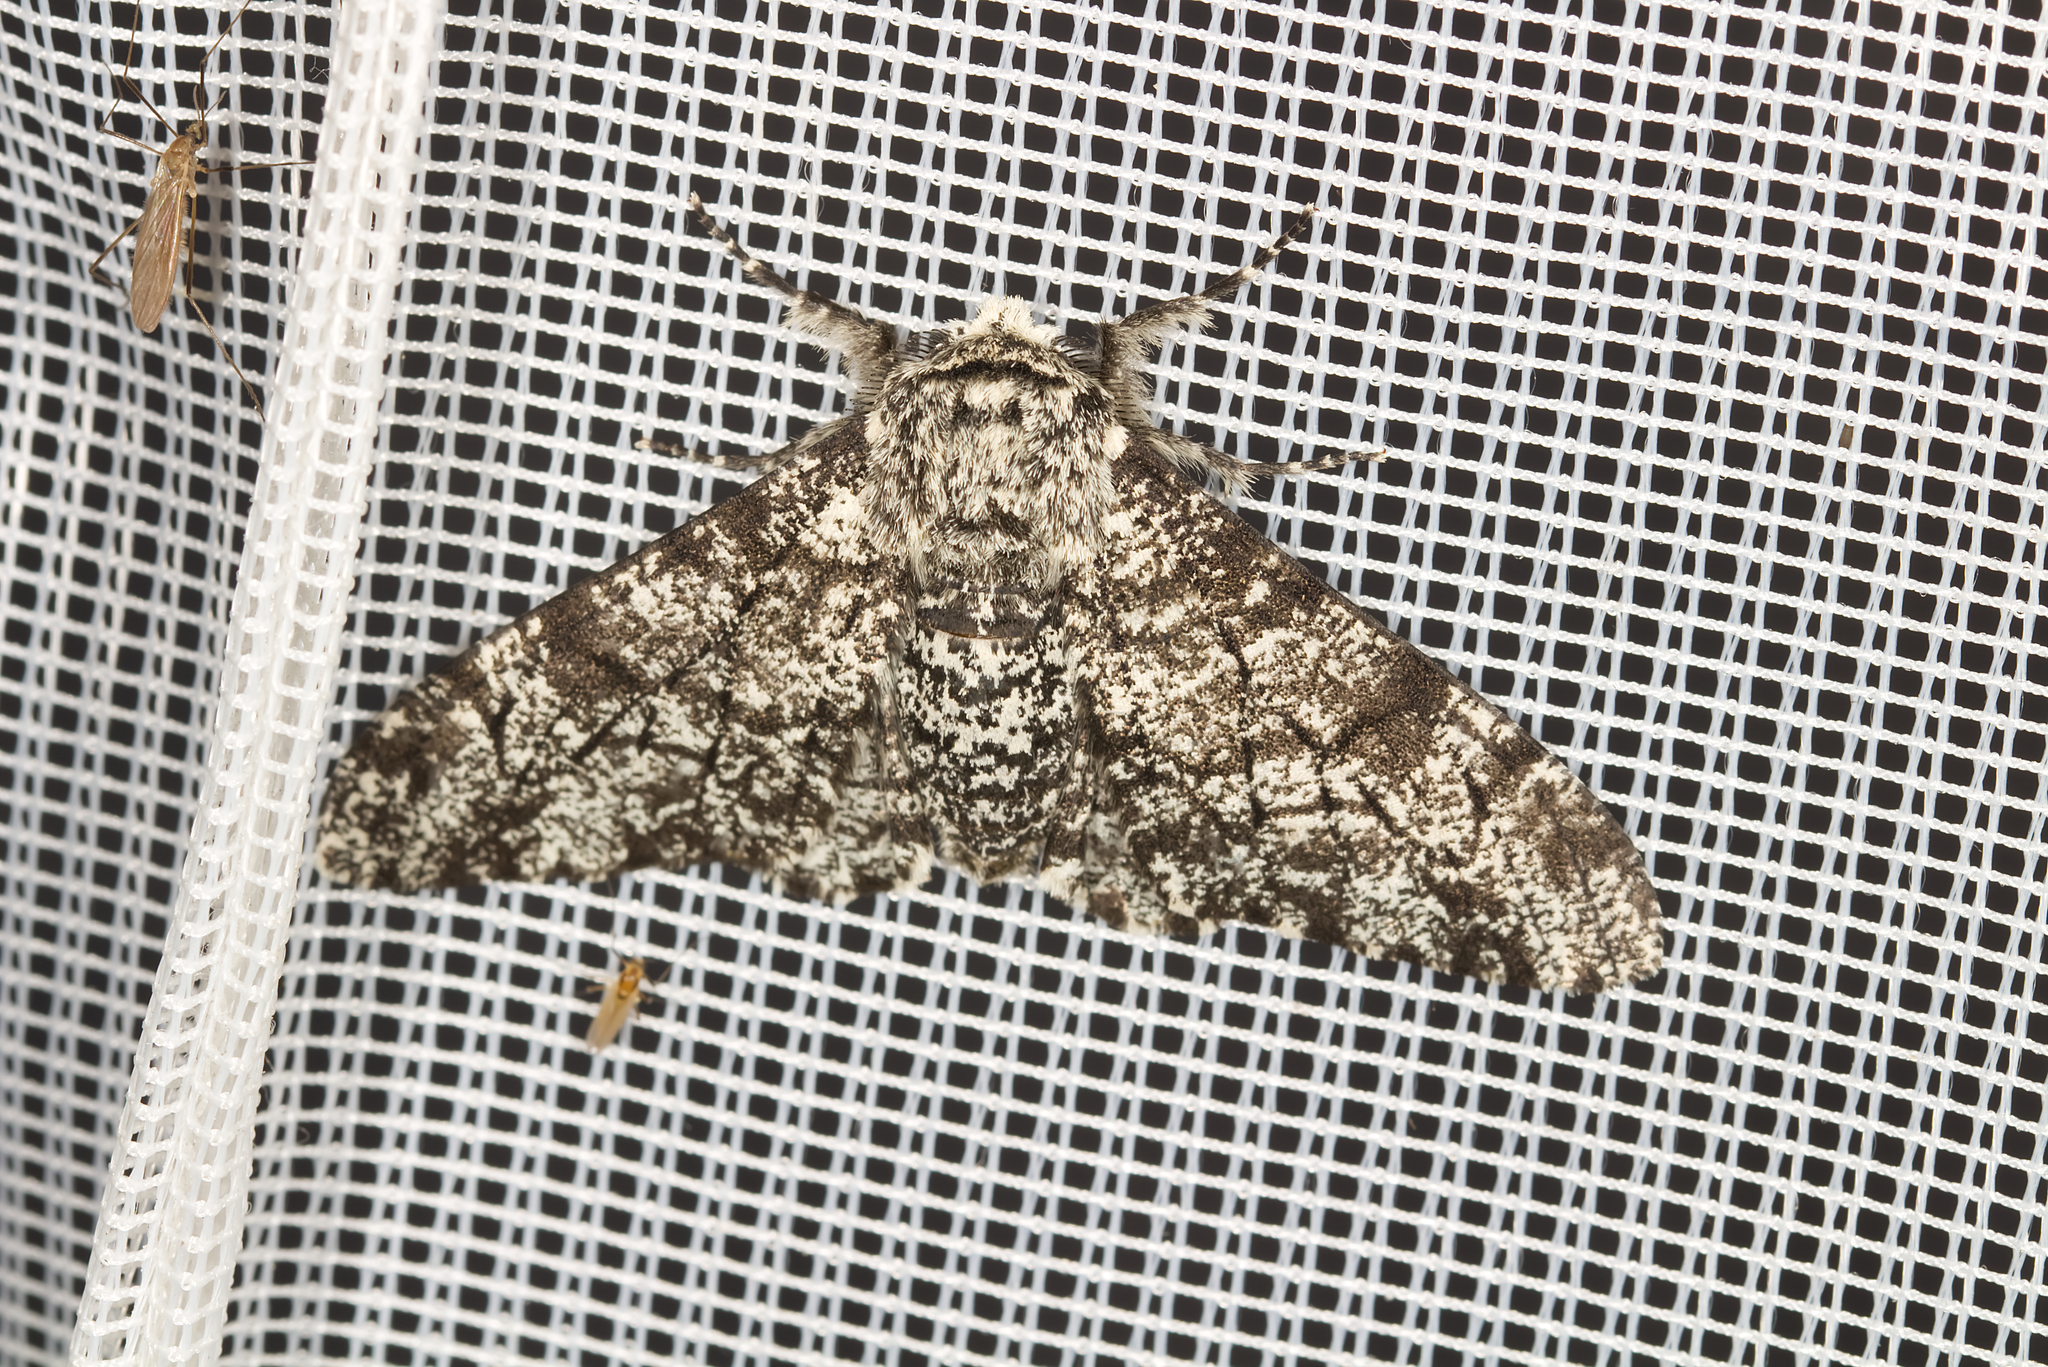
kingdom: Animalia
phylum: Arthropoda
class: Insecta
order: Lepidoptera
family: Geometridae
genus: Biston
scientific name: Biston betularia
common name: Peppered moth
